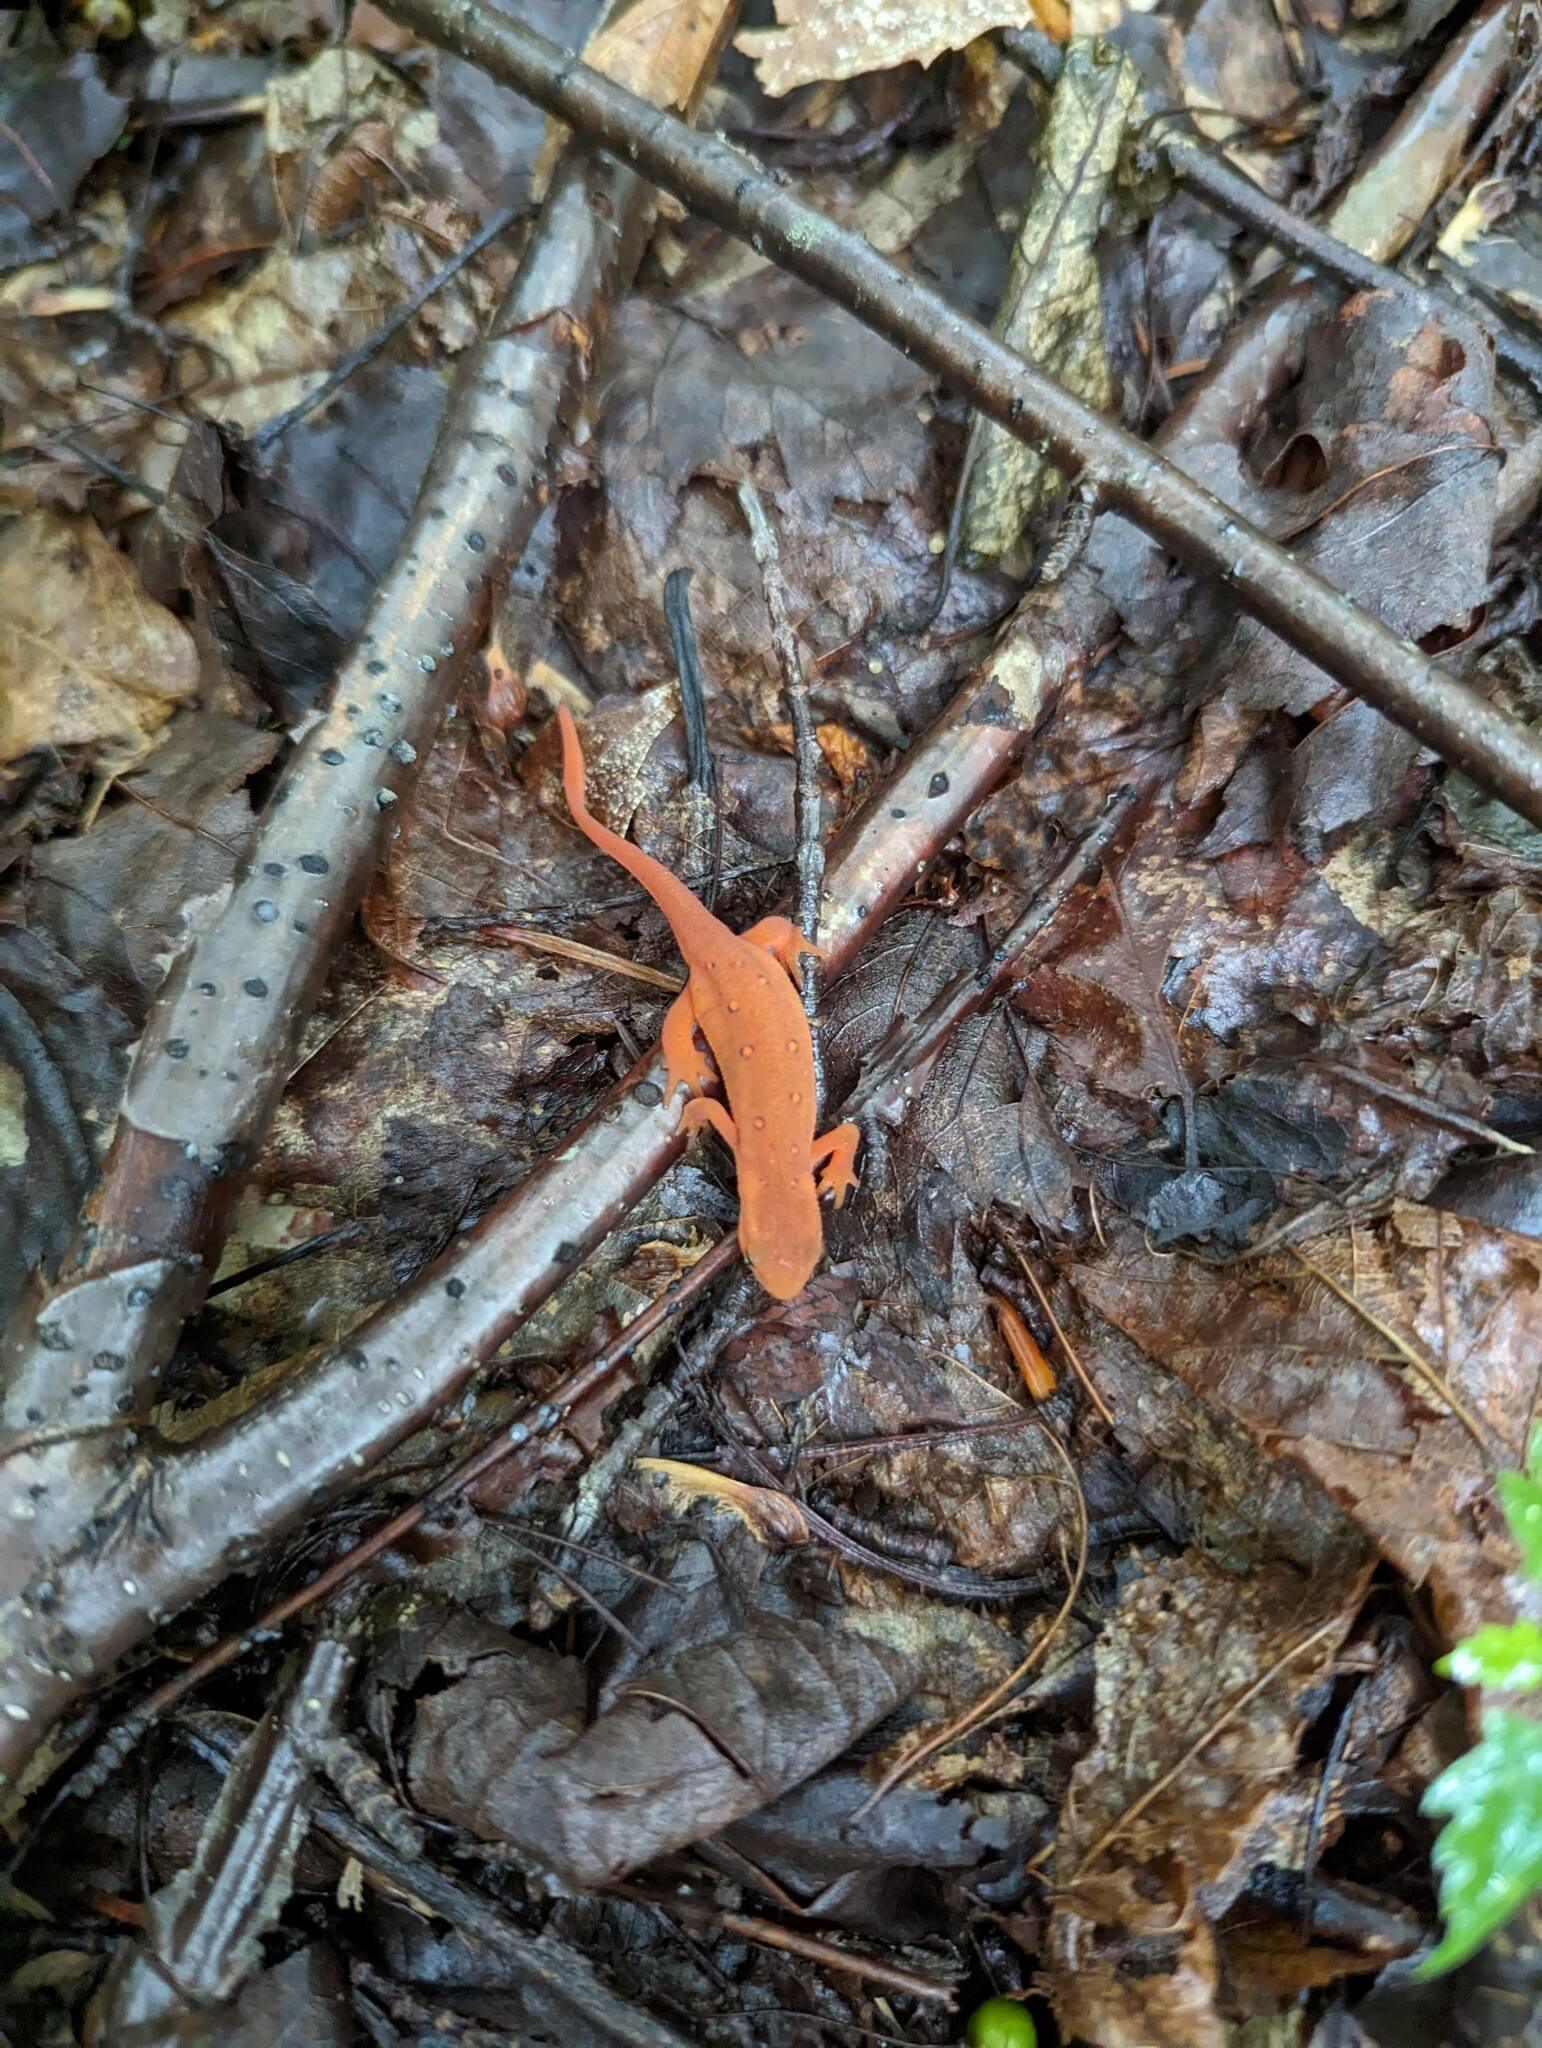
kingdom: Animalia
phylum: Chordata
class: Amphibia
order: Caudata
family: Salamandridae
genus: Notophthalmus
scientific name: Notophthalmus viridescens
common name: Eastern newt
